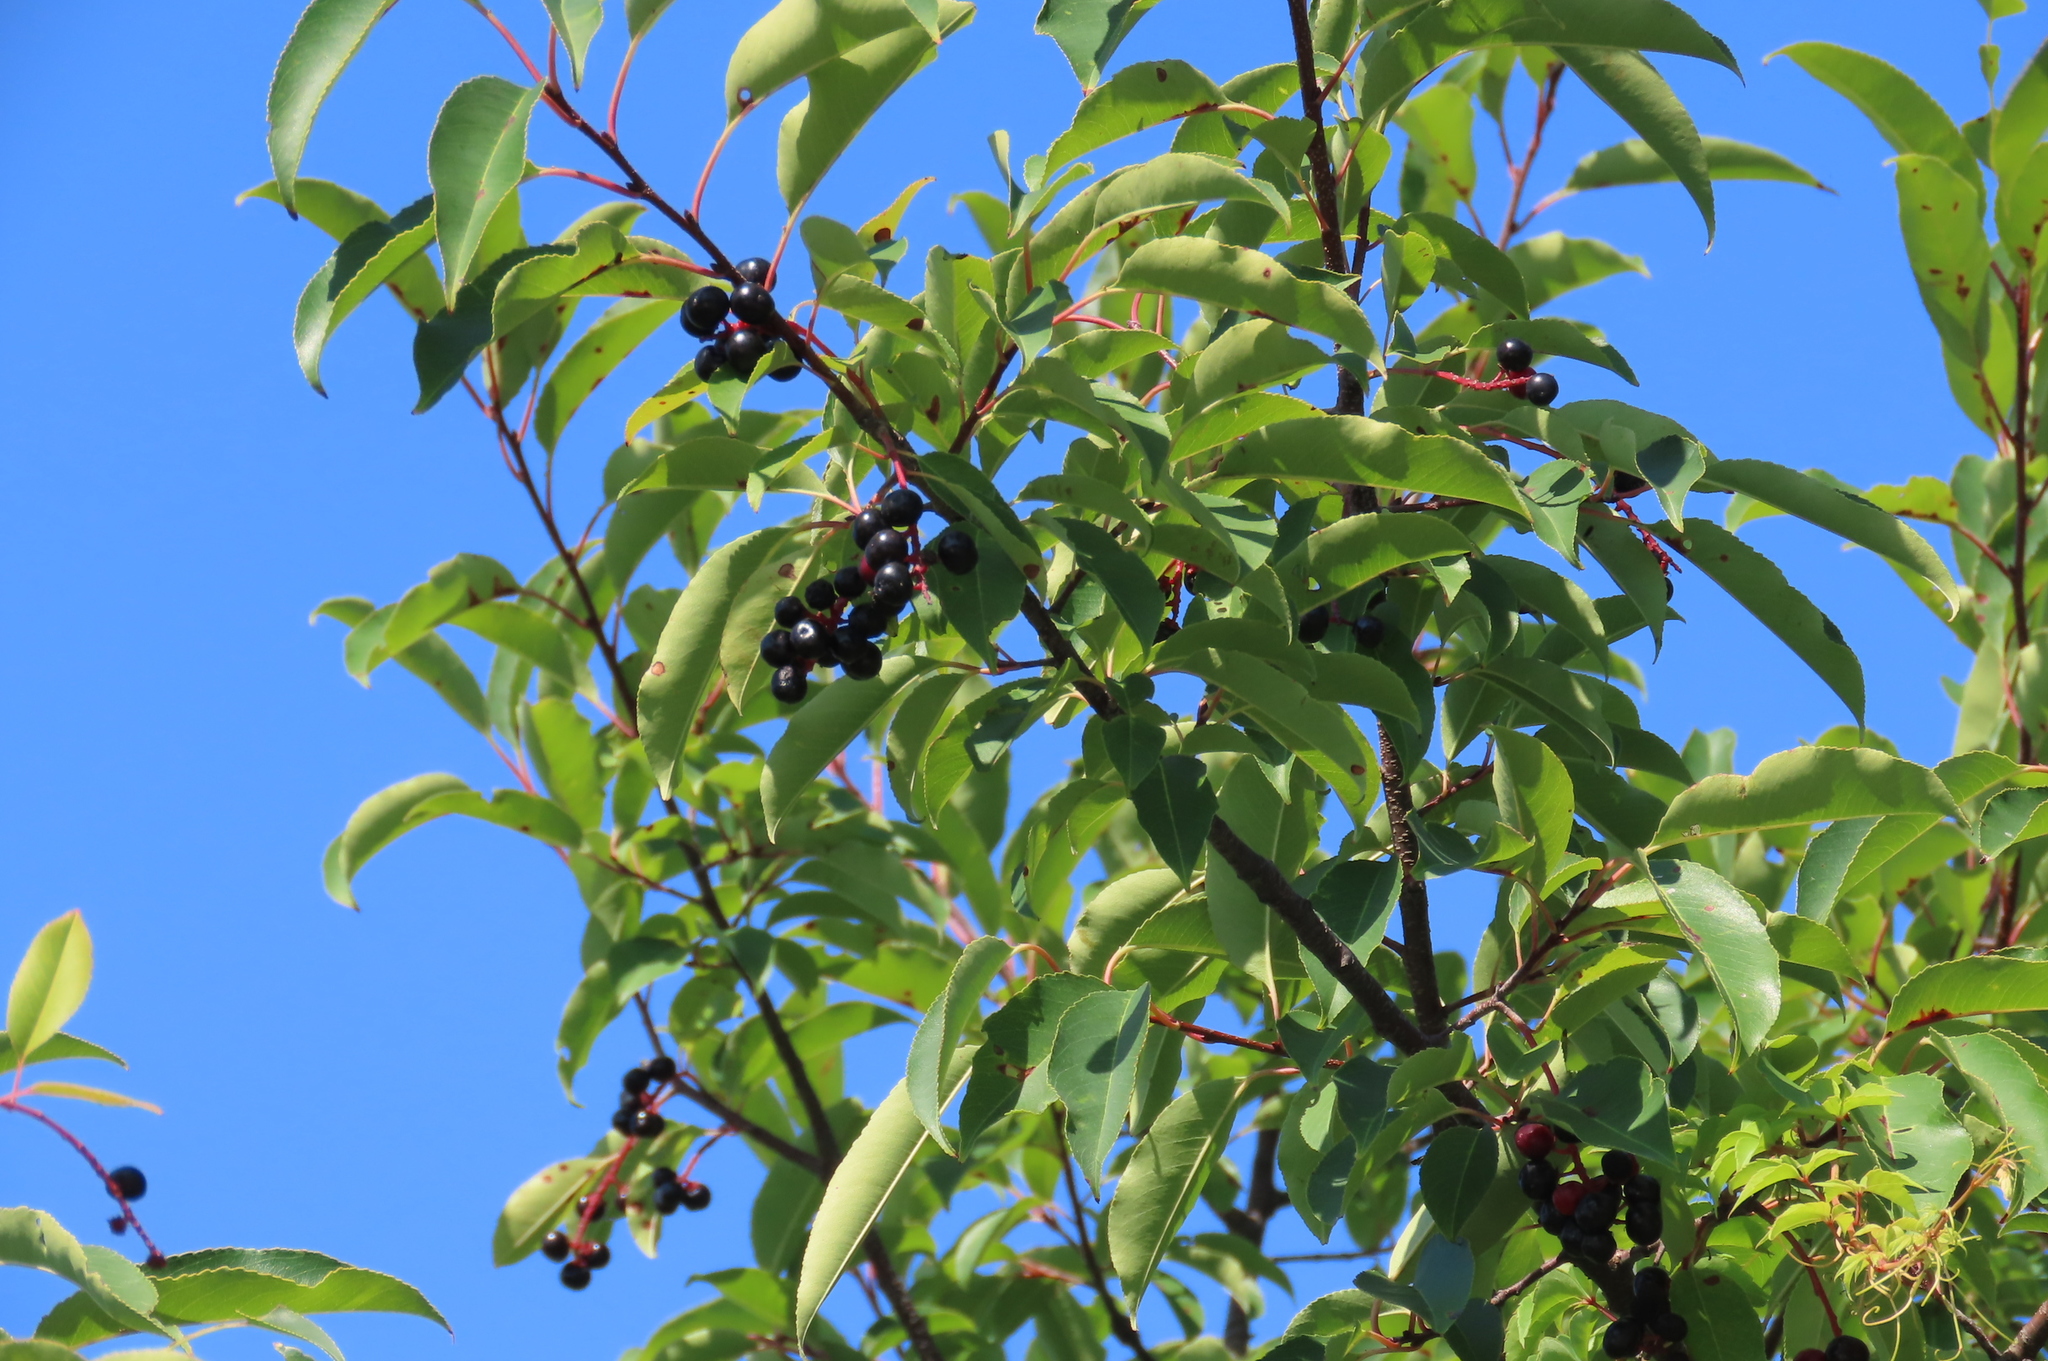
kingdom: Plantae
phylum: Tracheophyta
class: Magnoliopsida
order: Rosales
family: Rosaceae
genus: Prunus
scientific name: Prunus serotina
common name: Black cherry
